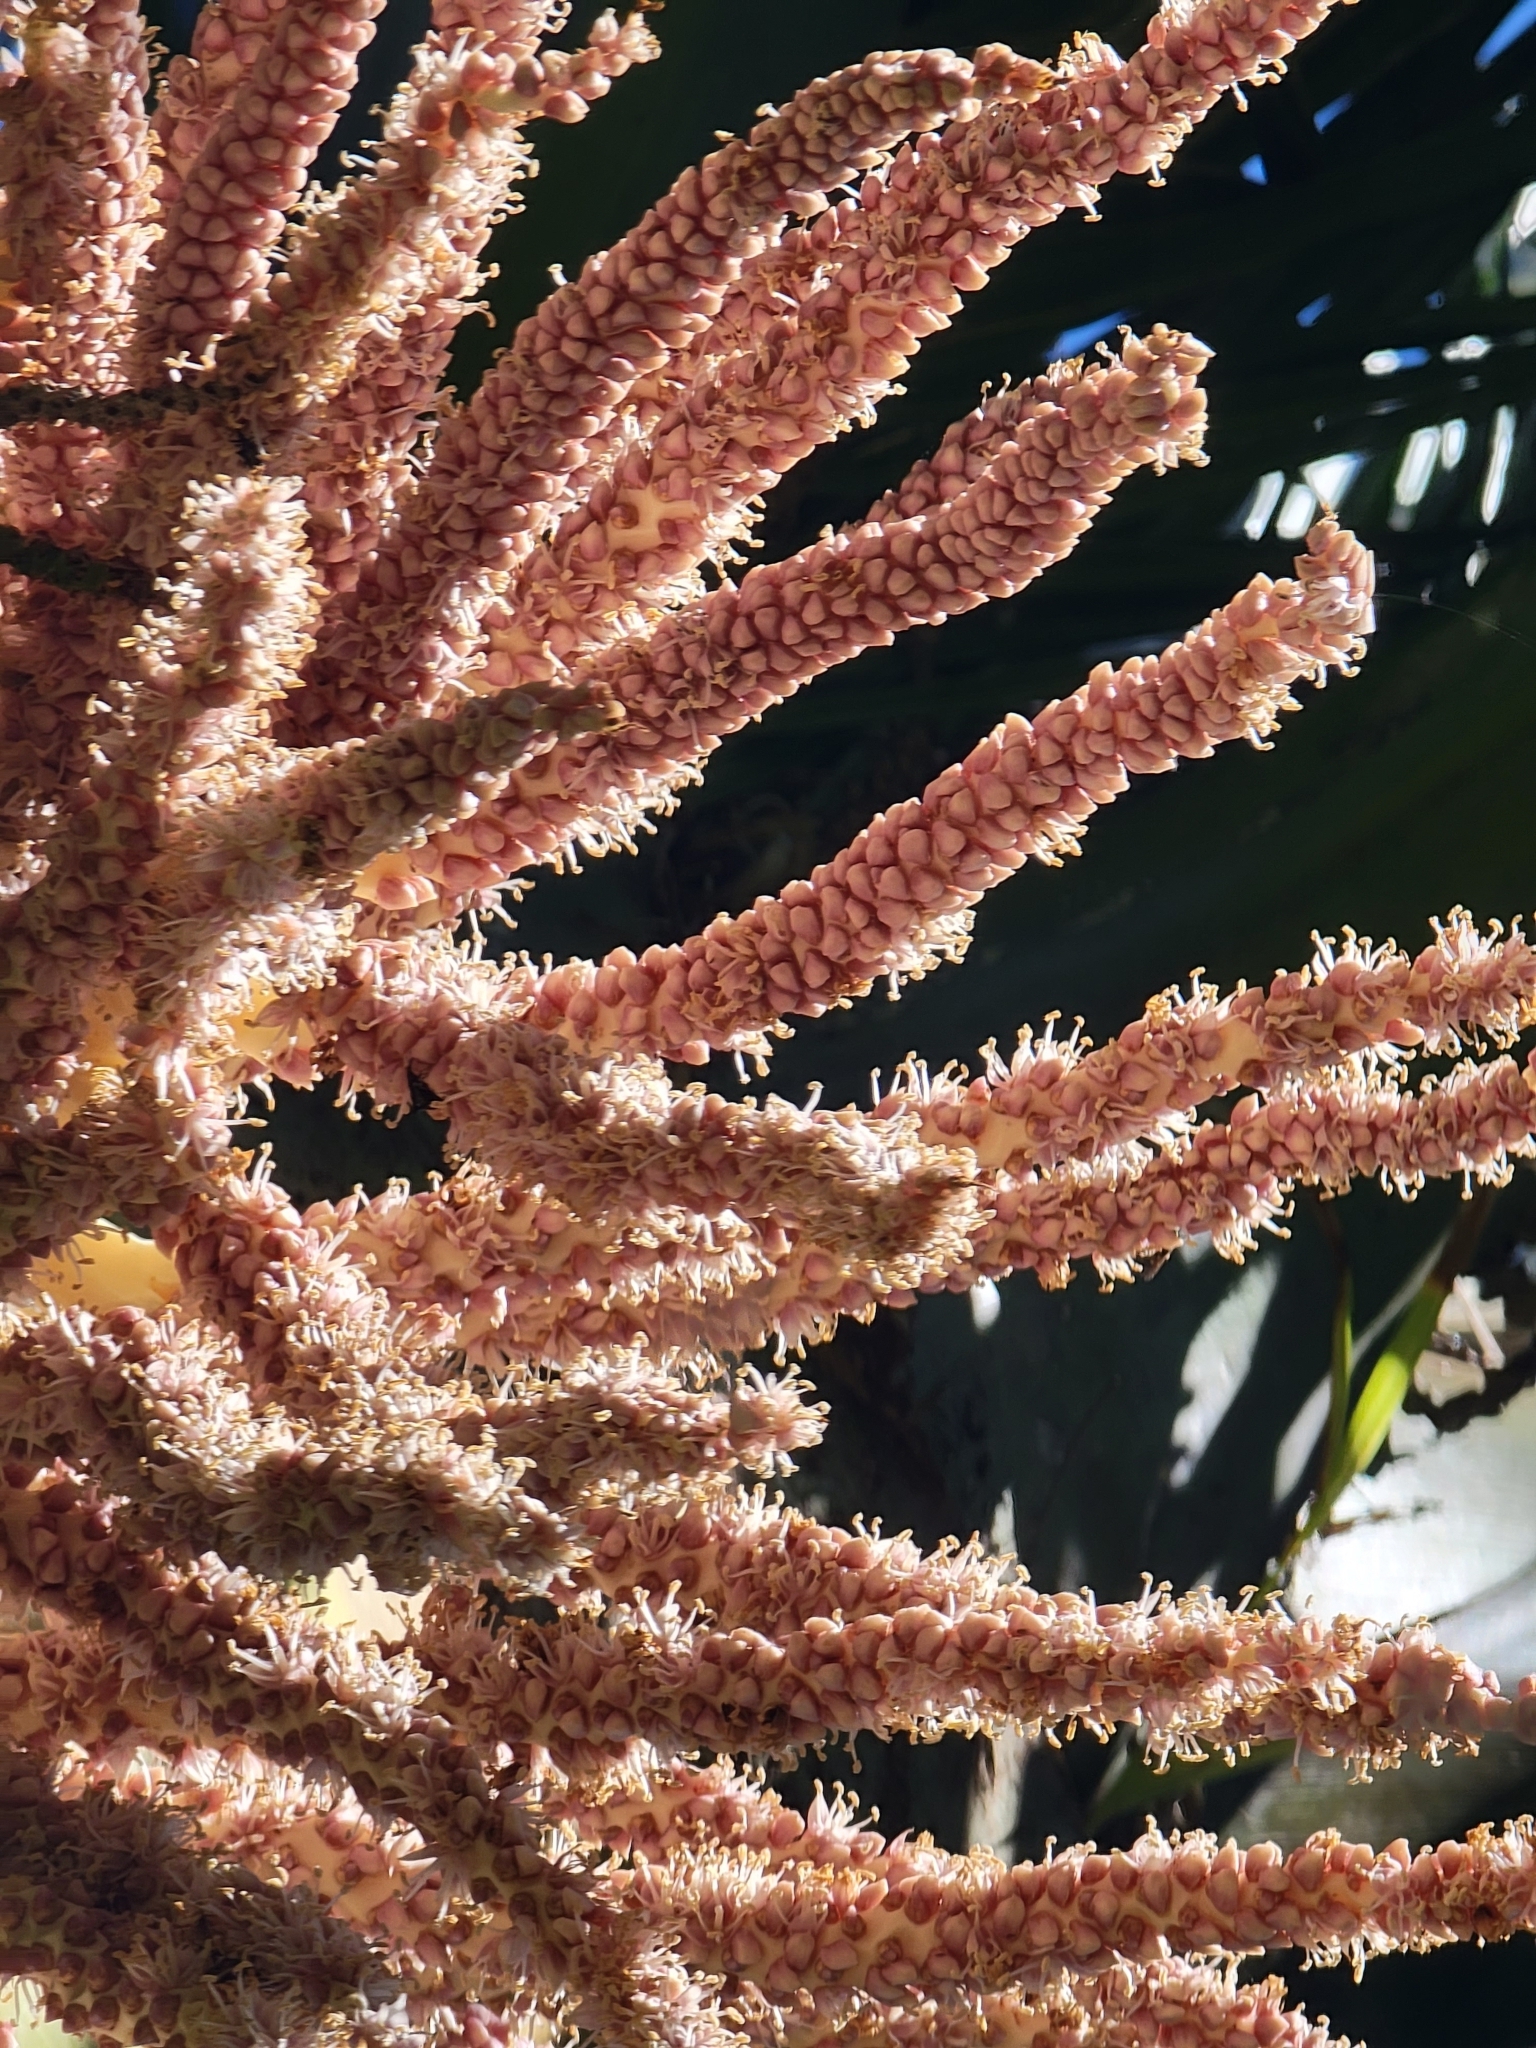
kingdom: Plantae
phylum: Tracheophyta
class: Liliopsida
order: Arecales
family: Arecaceae
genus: Rhopalostylis
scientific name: Rhopalostylis sapida
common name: Feather-duster palm
